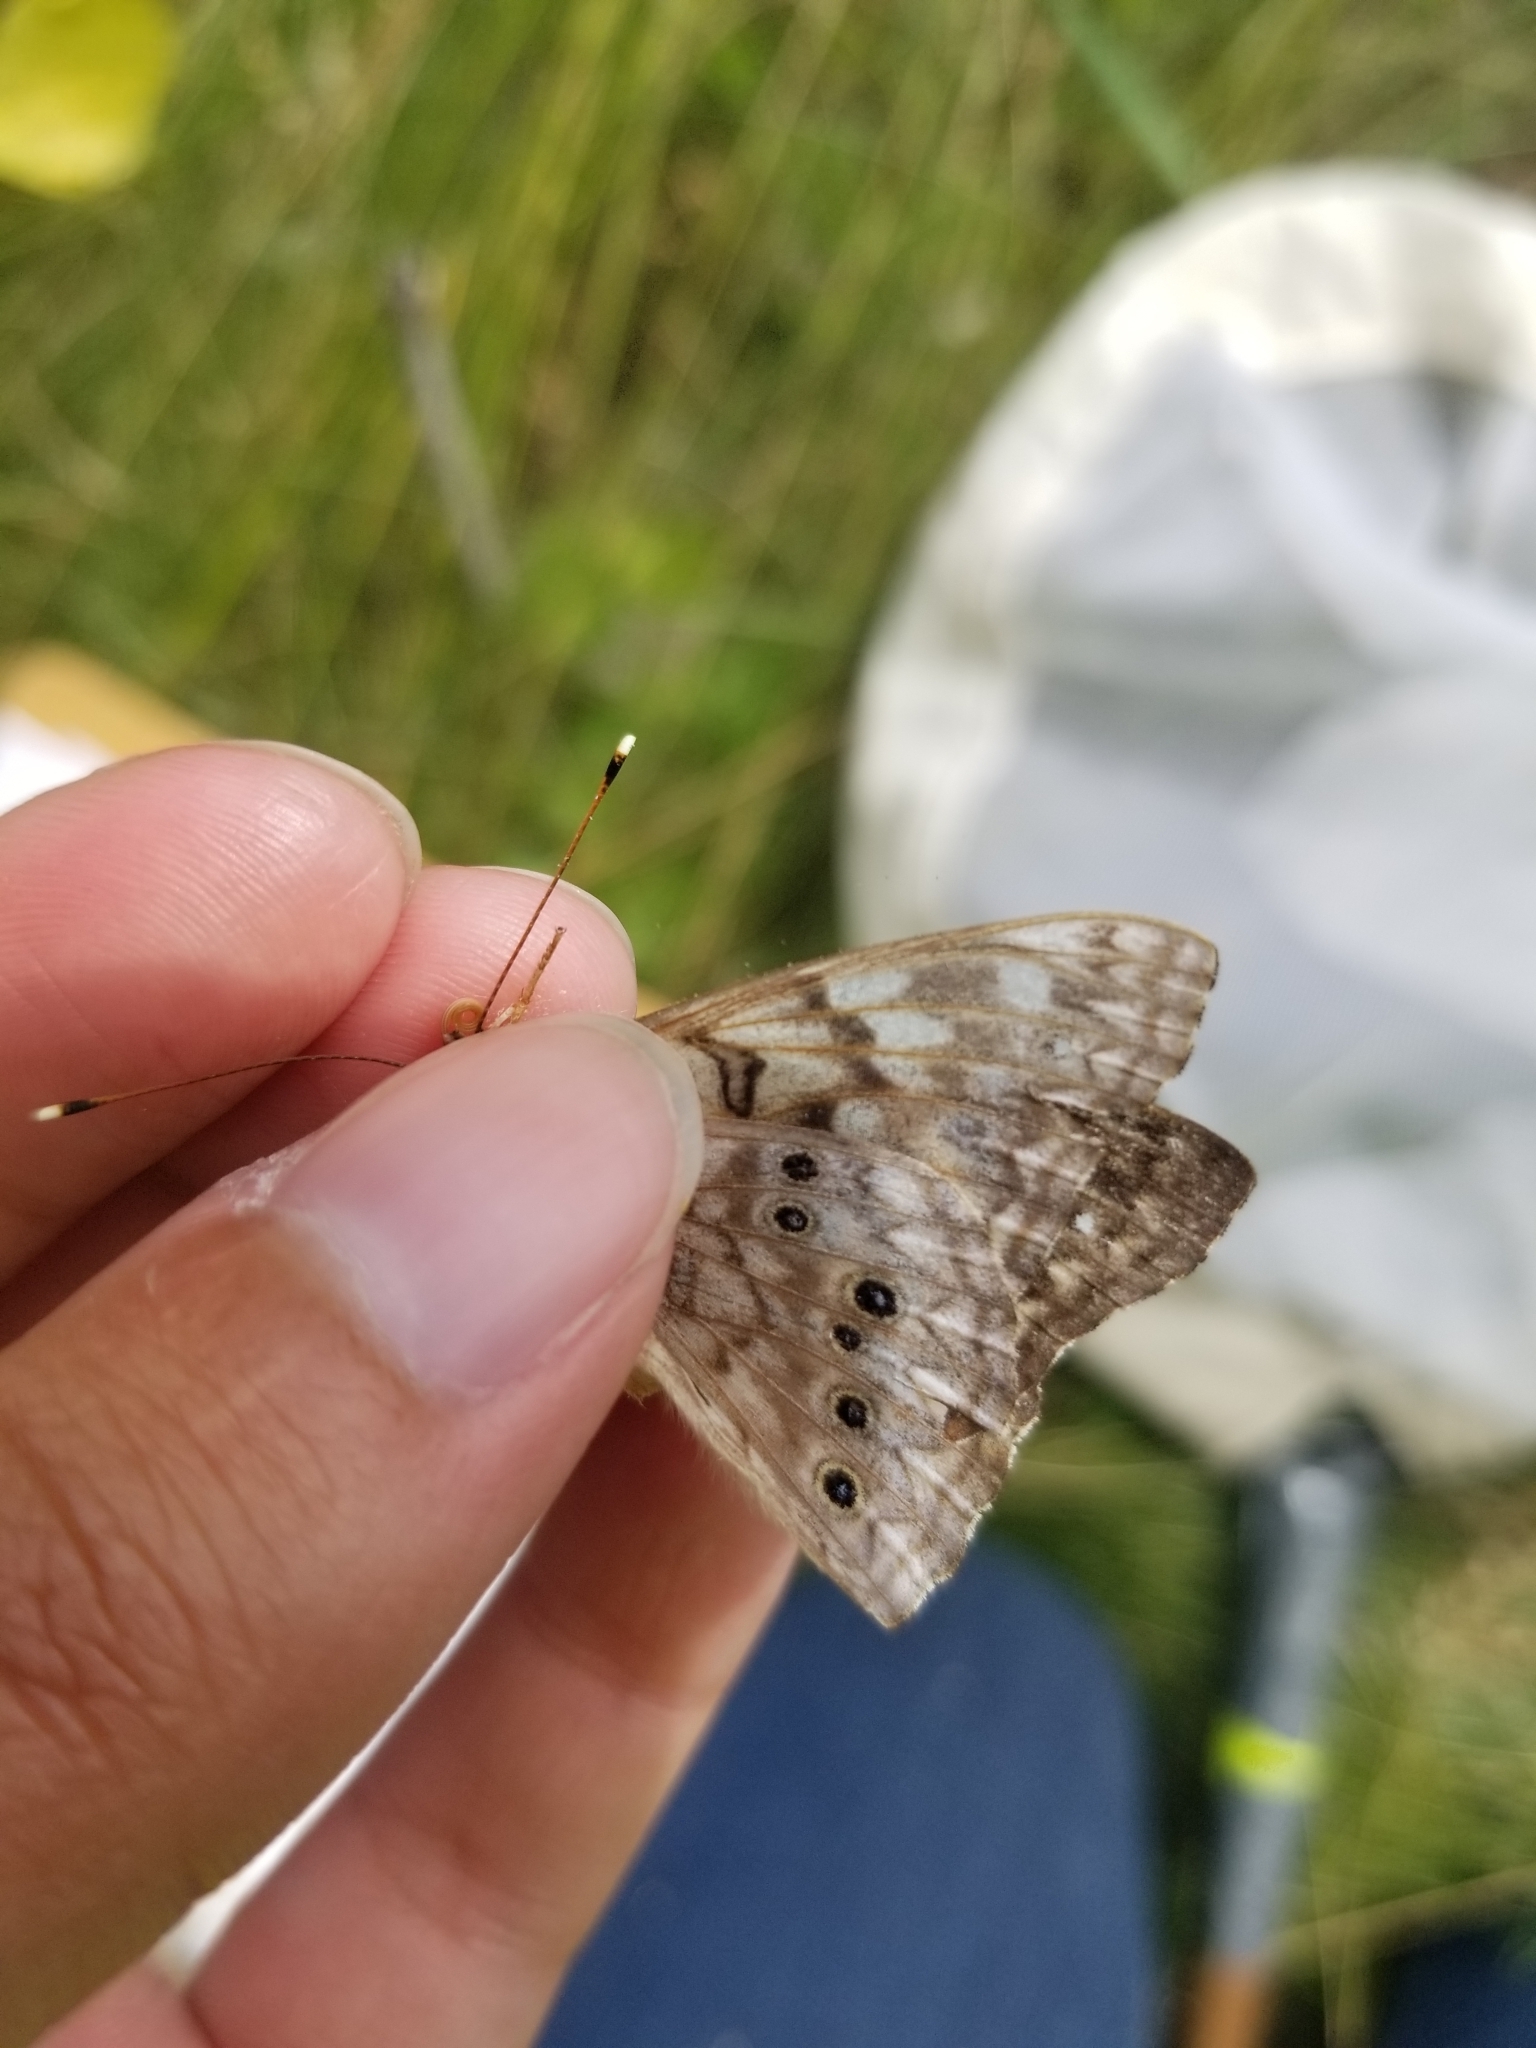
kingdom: Animalia
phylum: Arthropoda
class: Insecta
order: Lepidoptera
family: Nymphalidae
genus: Asterocampa
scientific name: Asterocampa celtis
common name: Hackberry emperor
